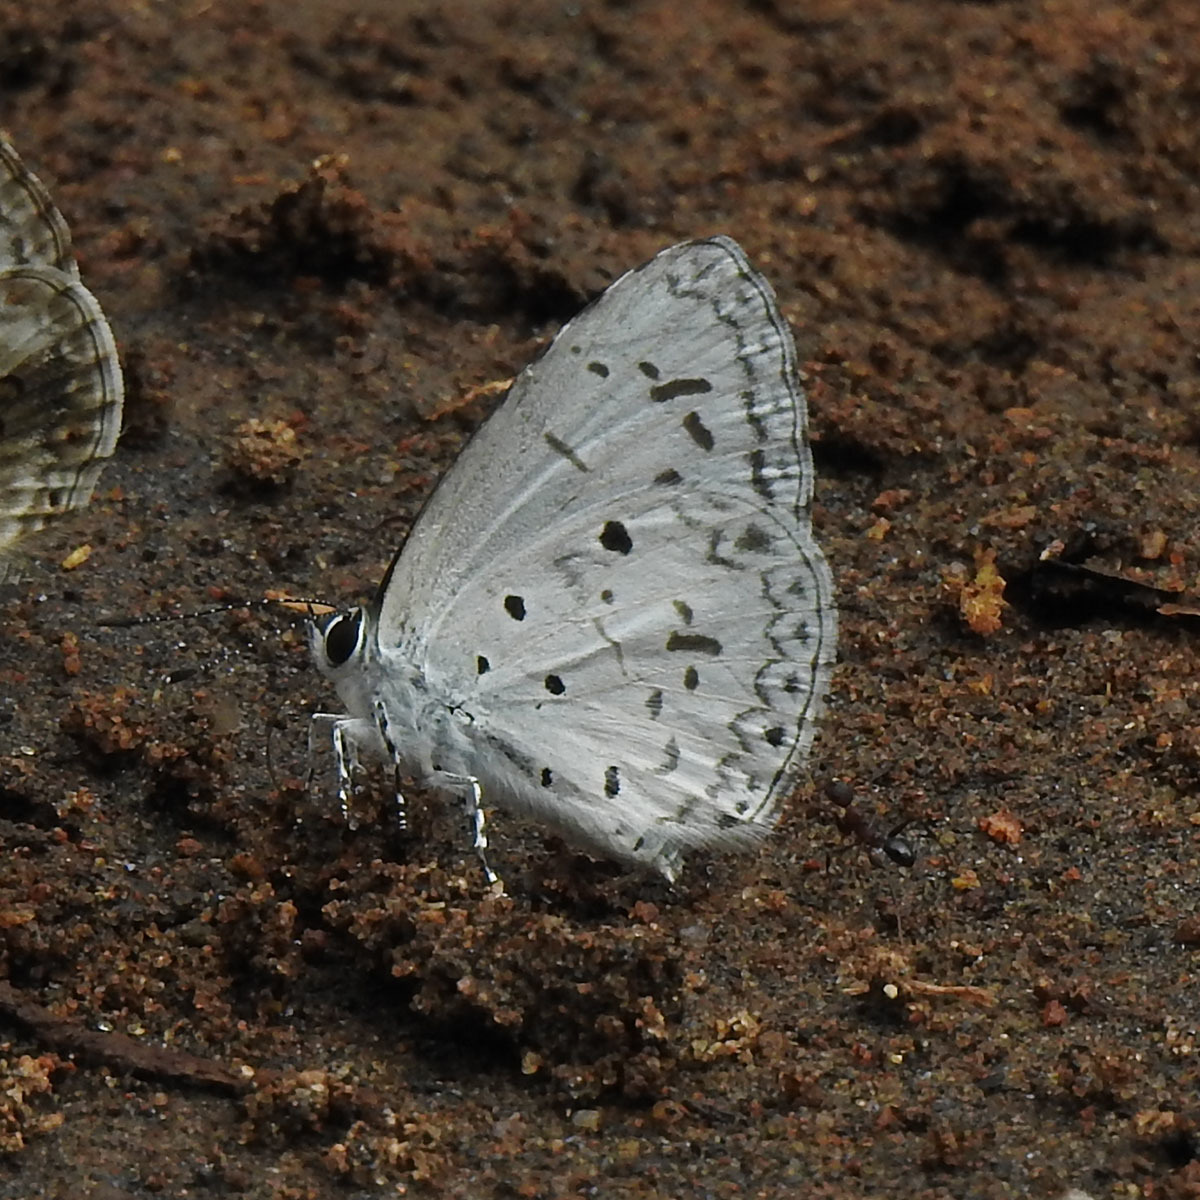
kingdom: Animalia
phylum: Arthropoda
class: Insecta
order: Lepidoptera
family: Lycaenidae
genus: Acytolepis
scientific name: Acytolepis puspa
